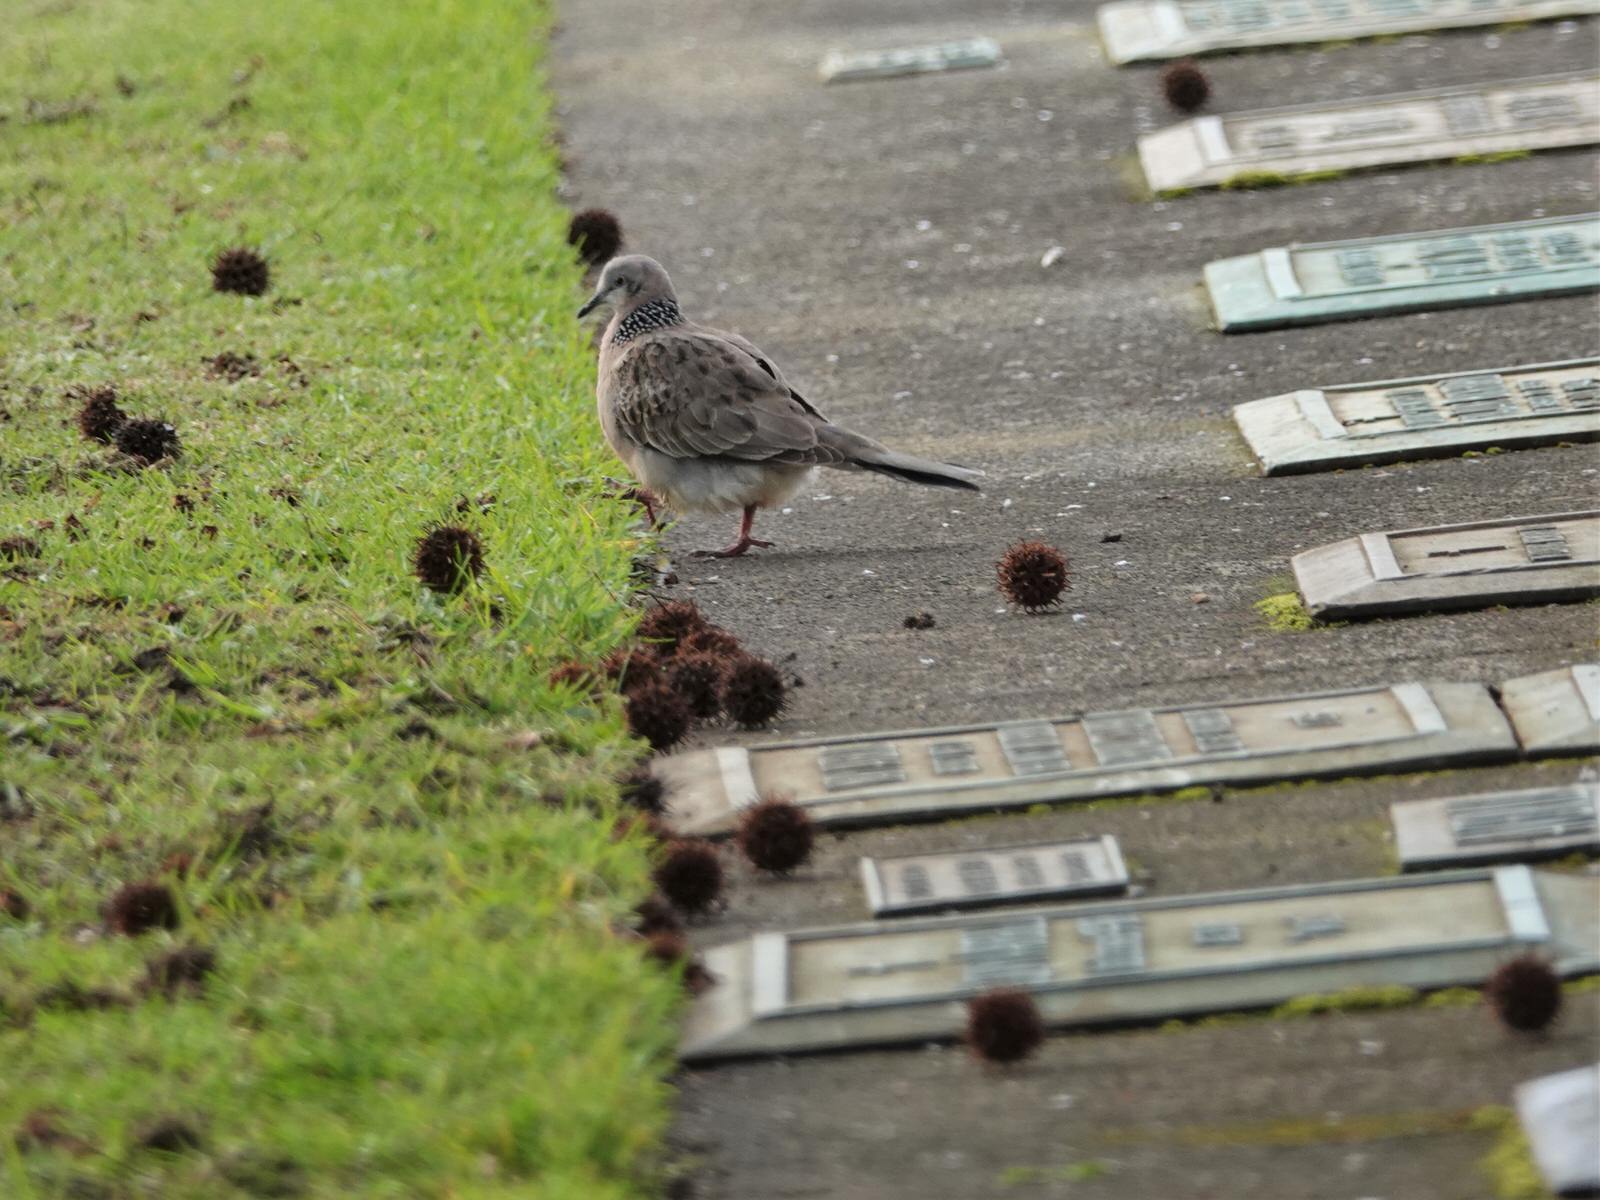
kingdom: Animalia
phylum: Chordata
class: Aves
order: Columbiformes
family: Columbidae
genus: Spilopelia
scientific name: Spilopelia chinensis
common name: Spotted dove
